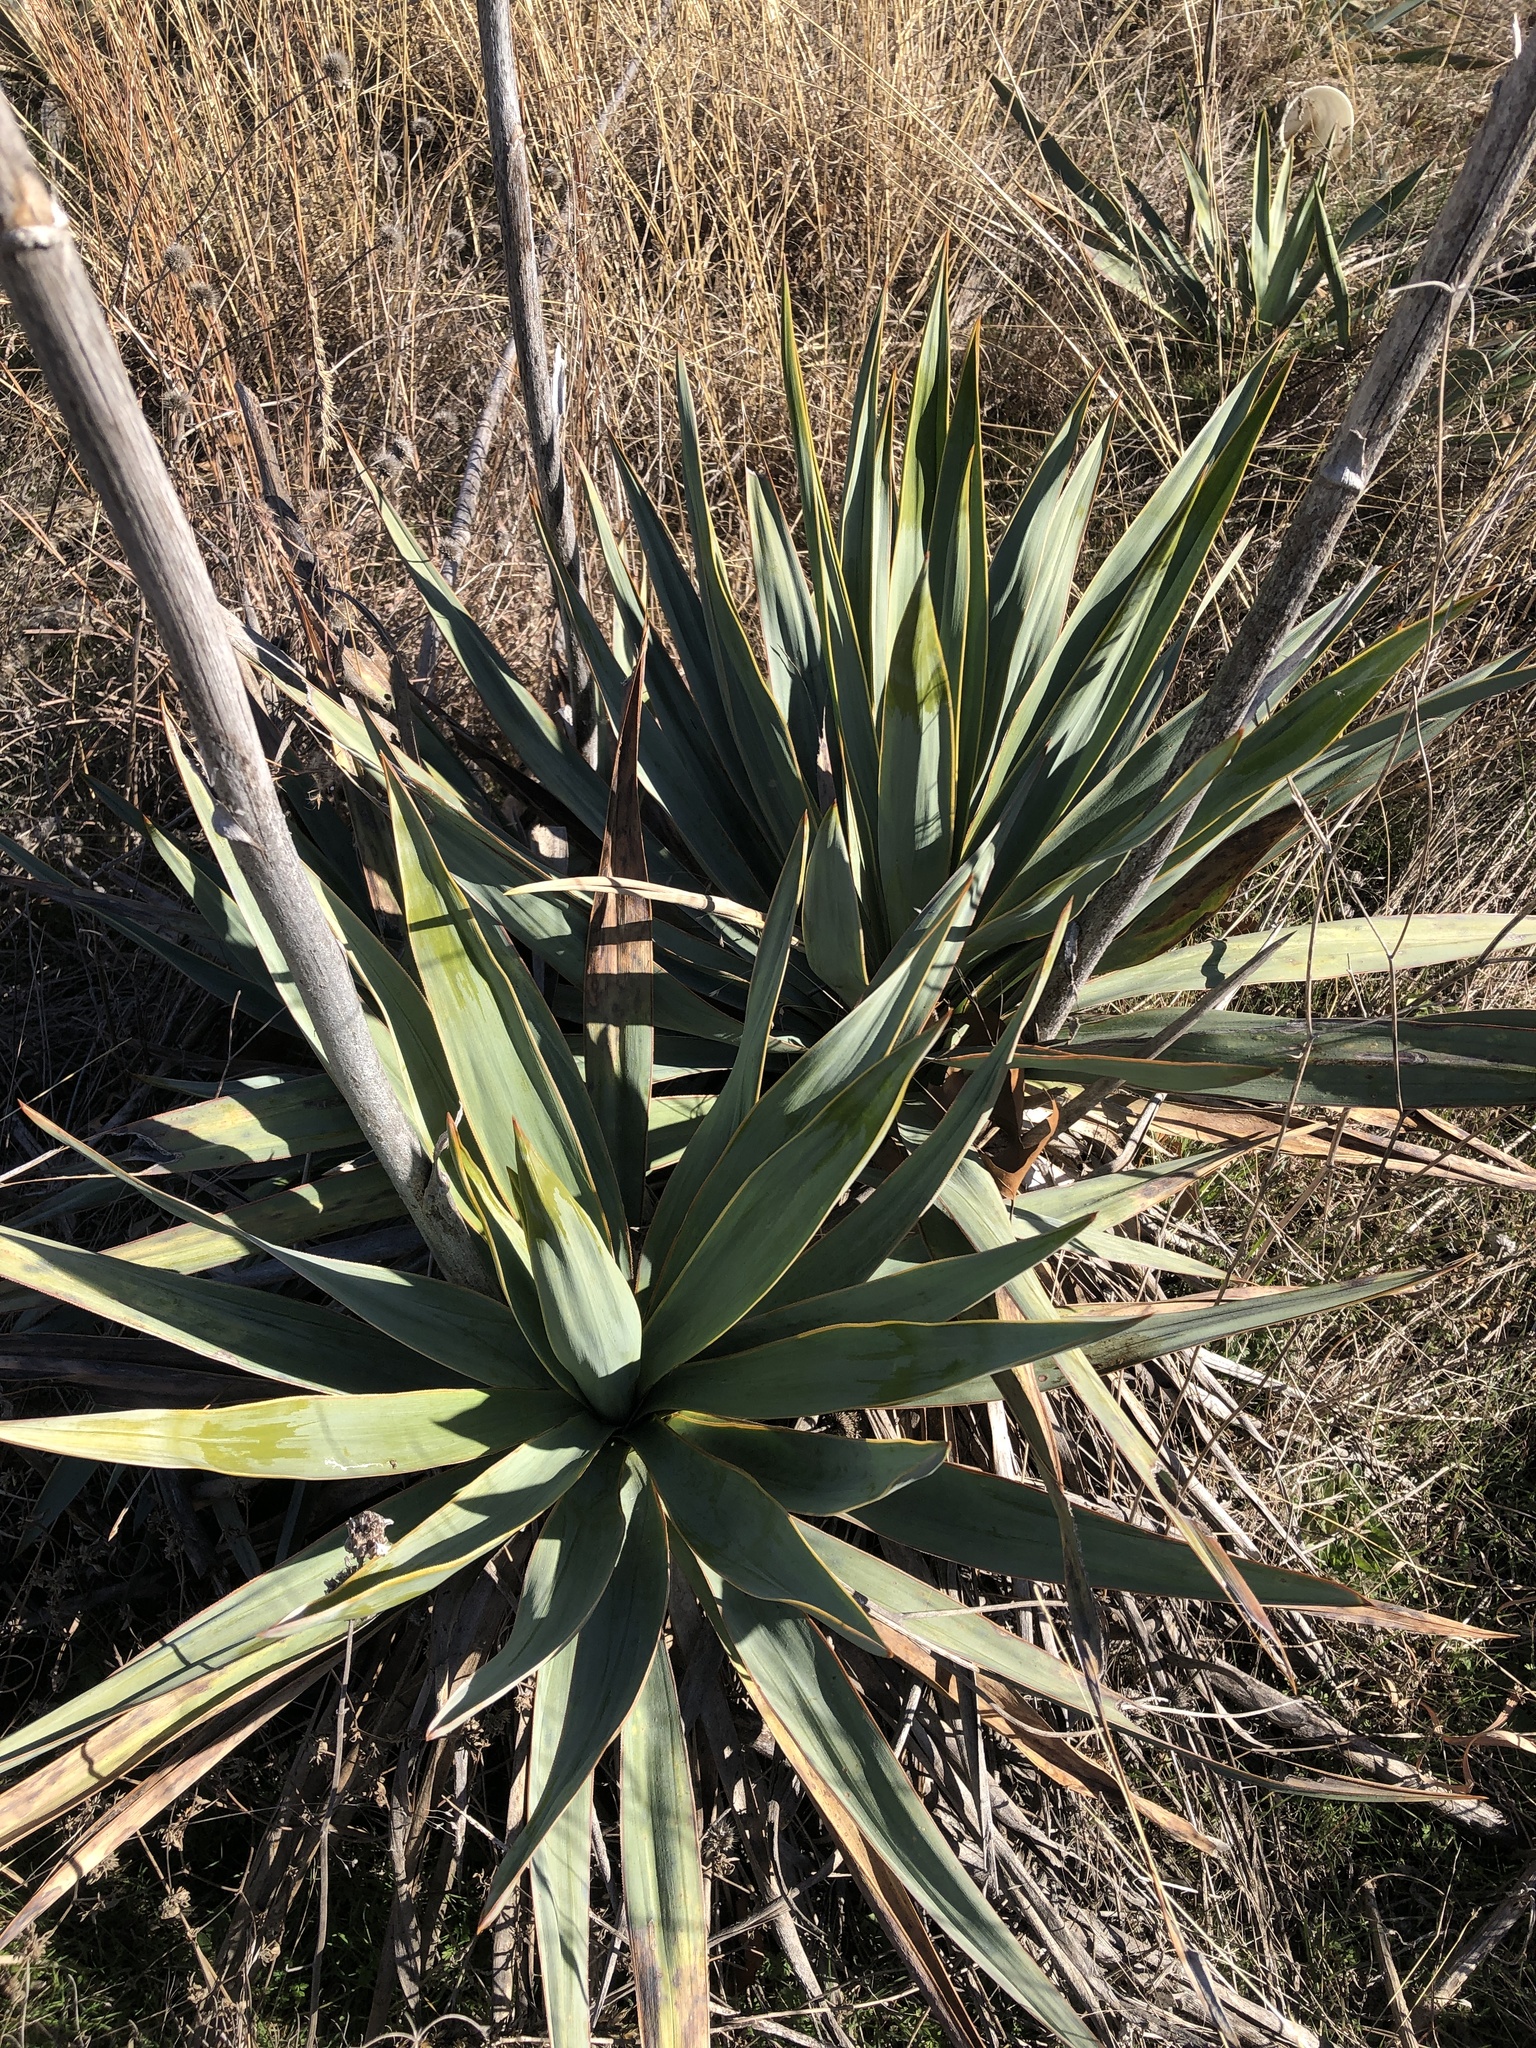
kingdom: Plantae
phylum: Tracheophyta
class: Liliopsida
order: Asparagales
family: Asparagaceae
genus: Yucca
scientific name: Yucca pallida
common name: Pale leaf yucca
